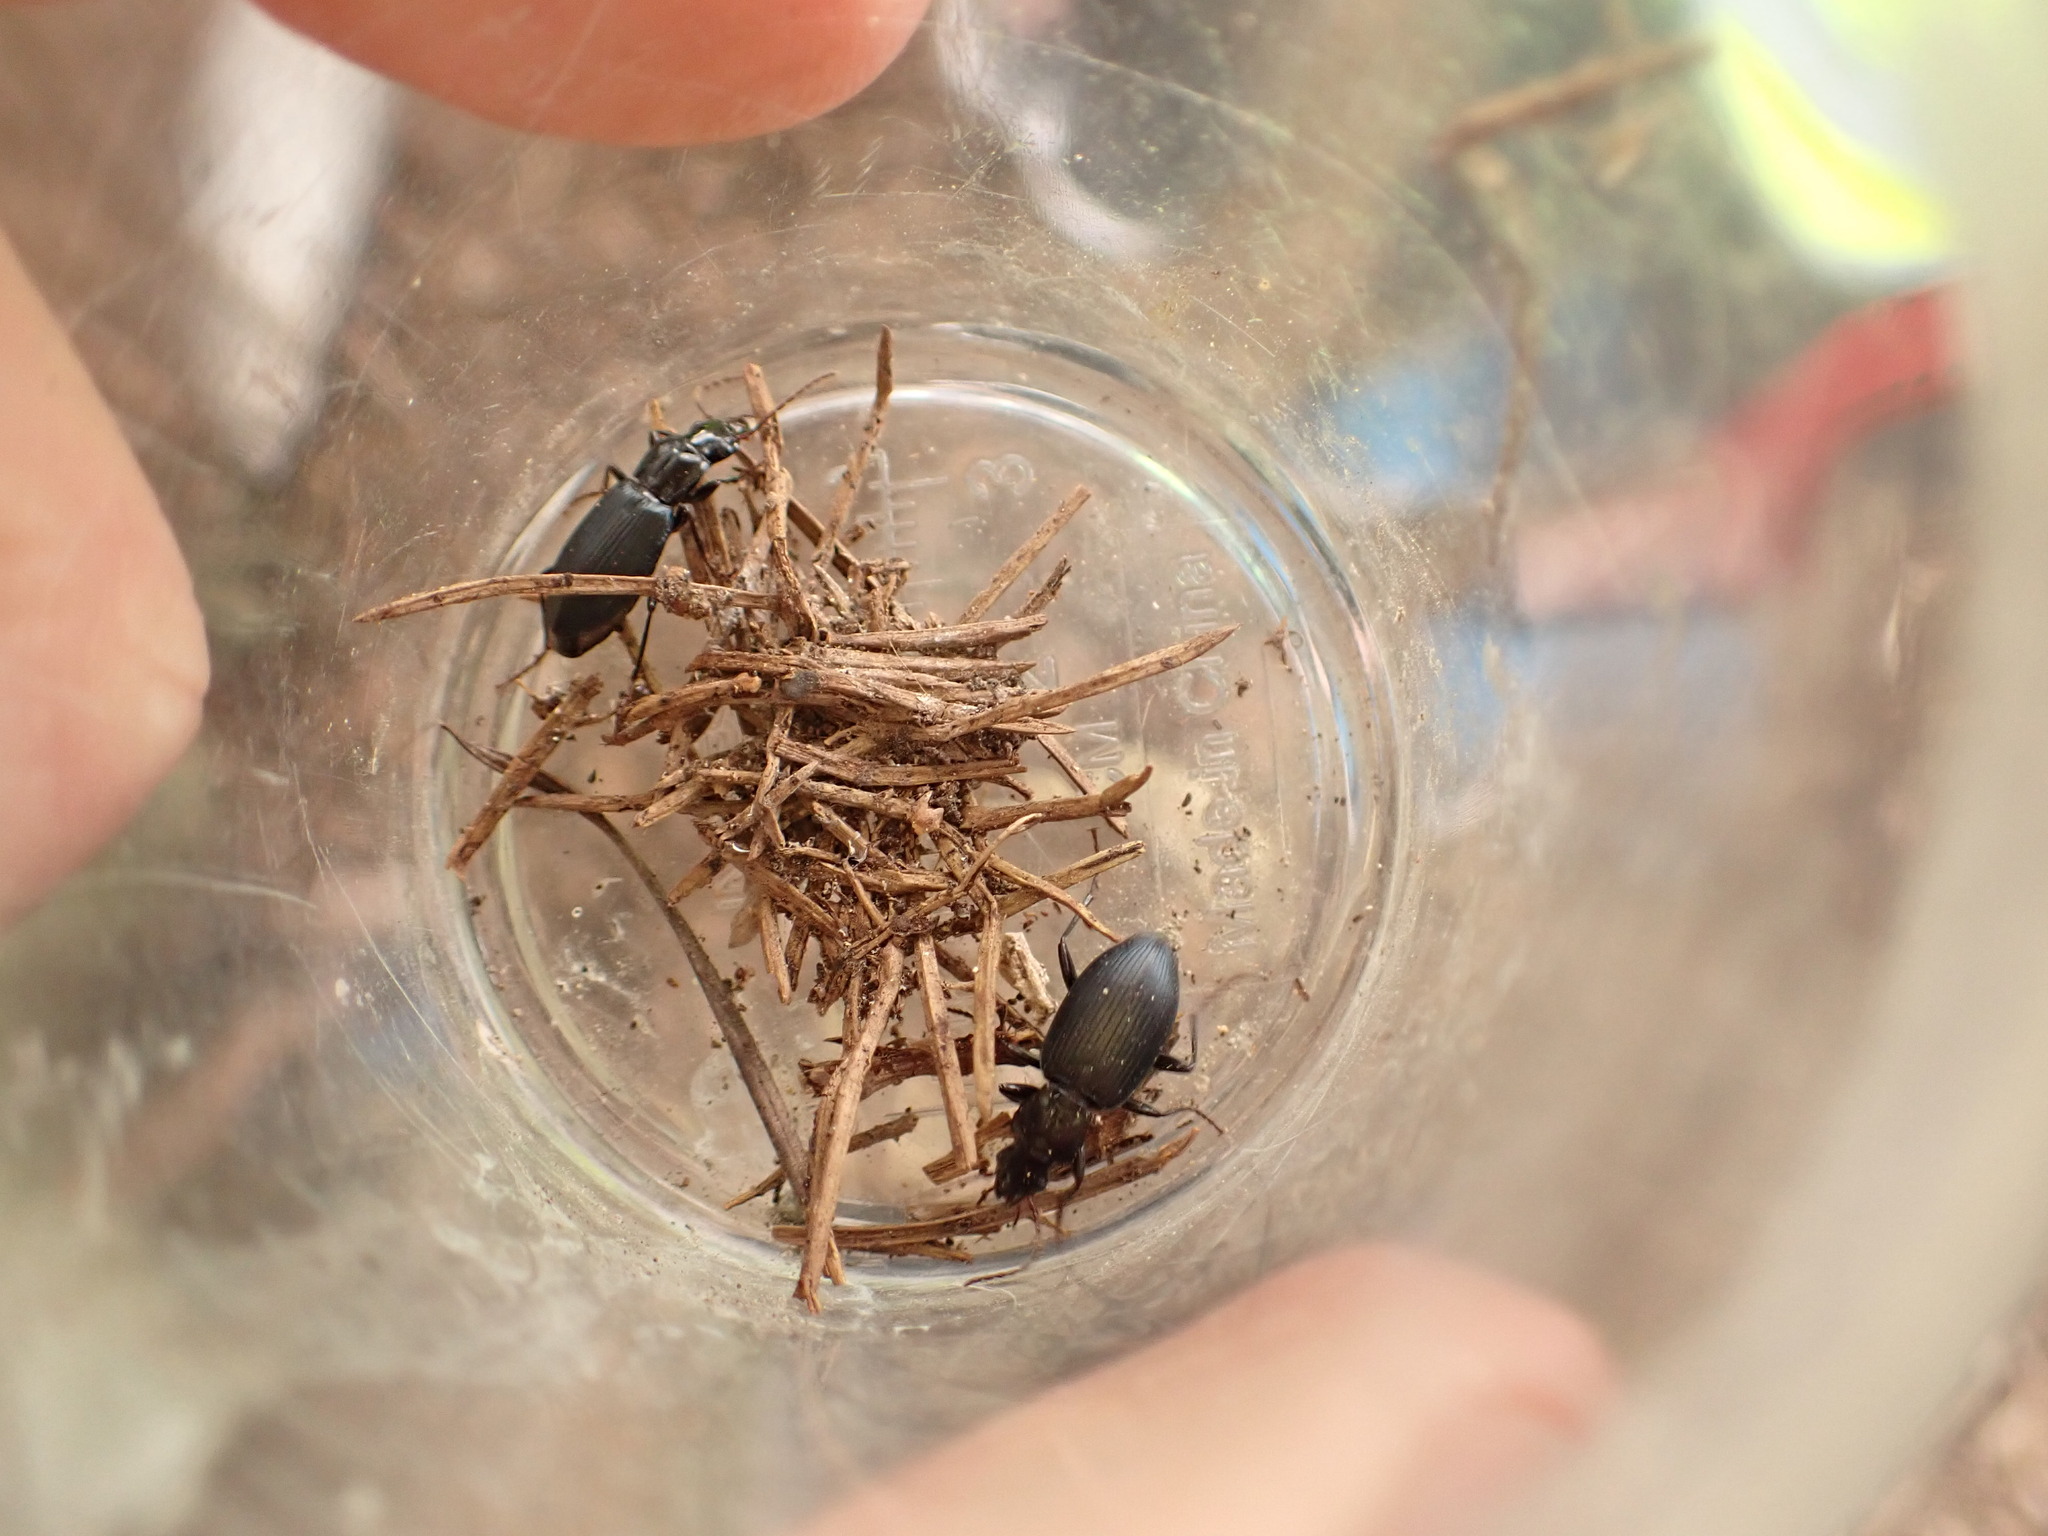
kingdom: Animalia
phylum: Arthropoda
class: Insecta
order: Coleoptera
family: Carabidae
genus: Laemostenus
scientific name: Laemostenus complanatus
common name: Cosmopolitan ground beetle
